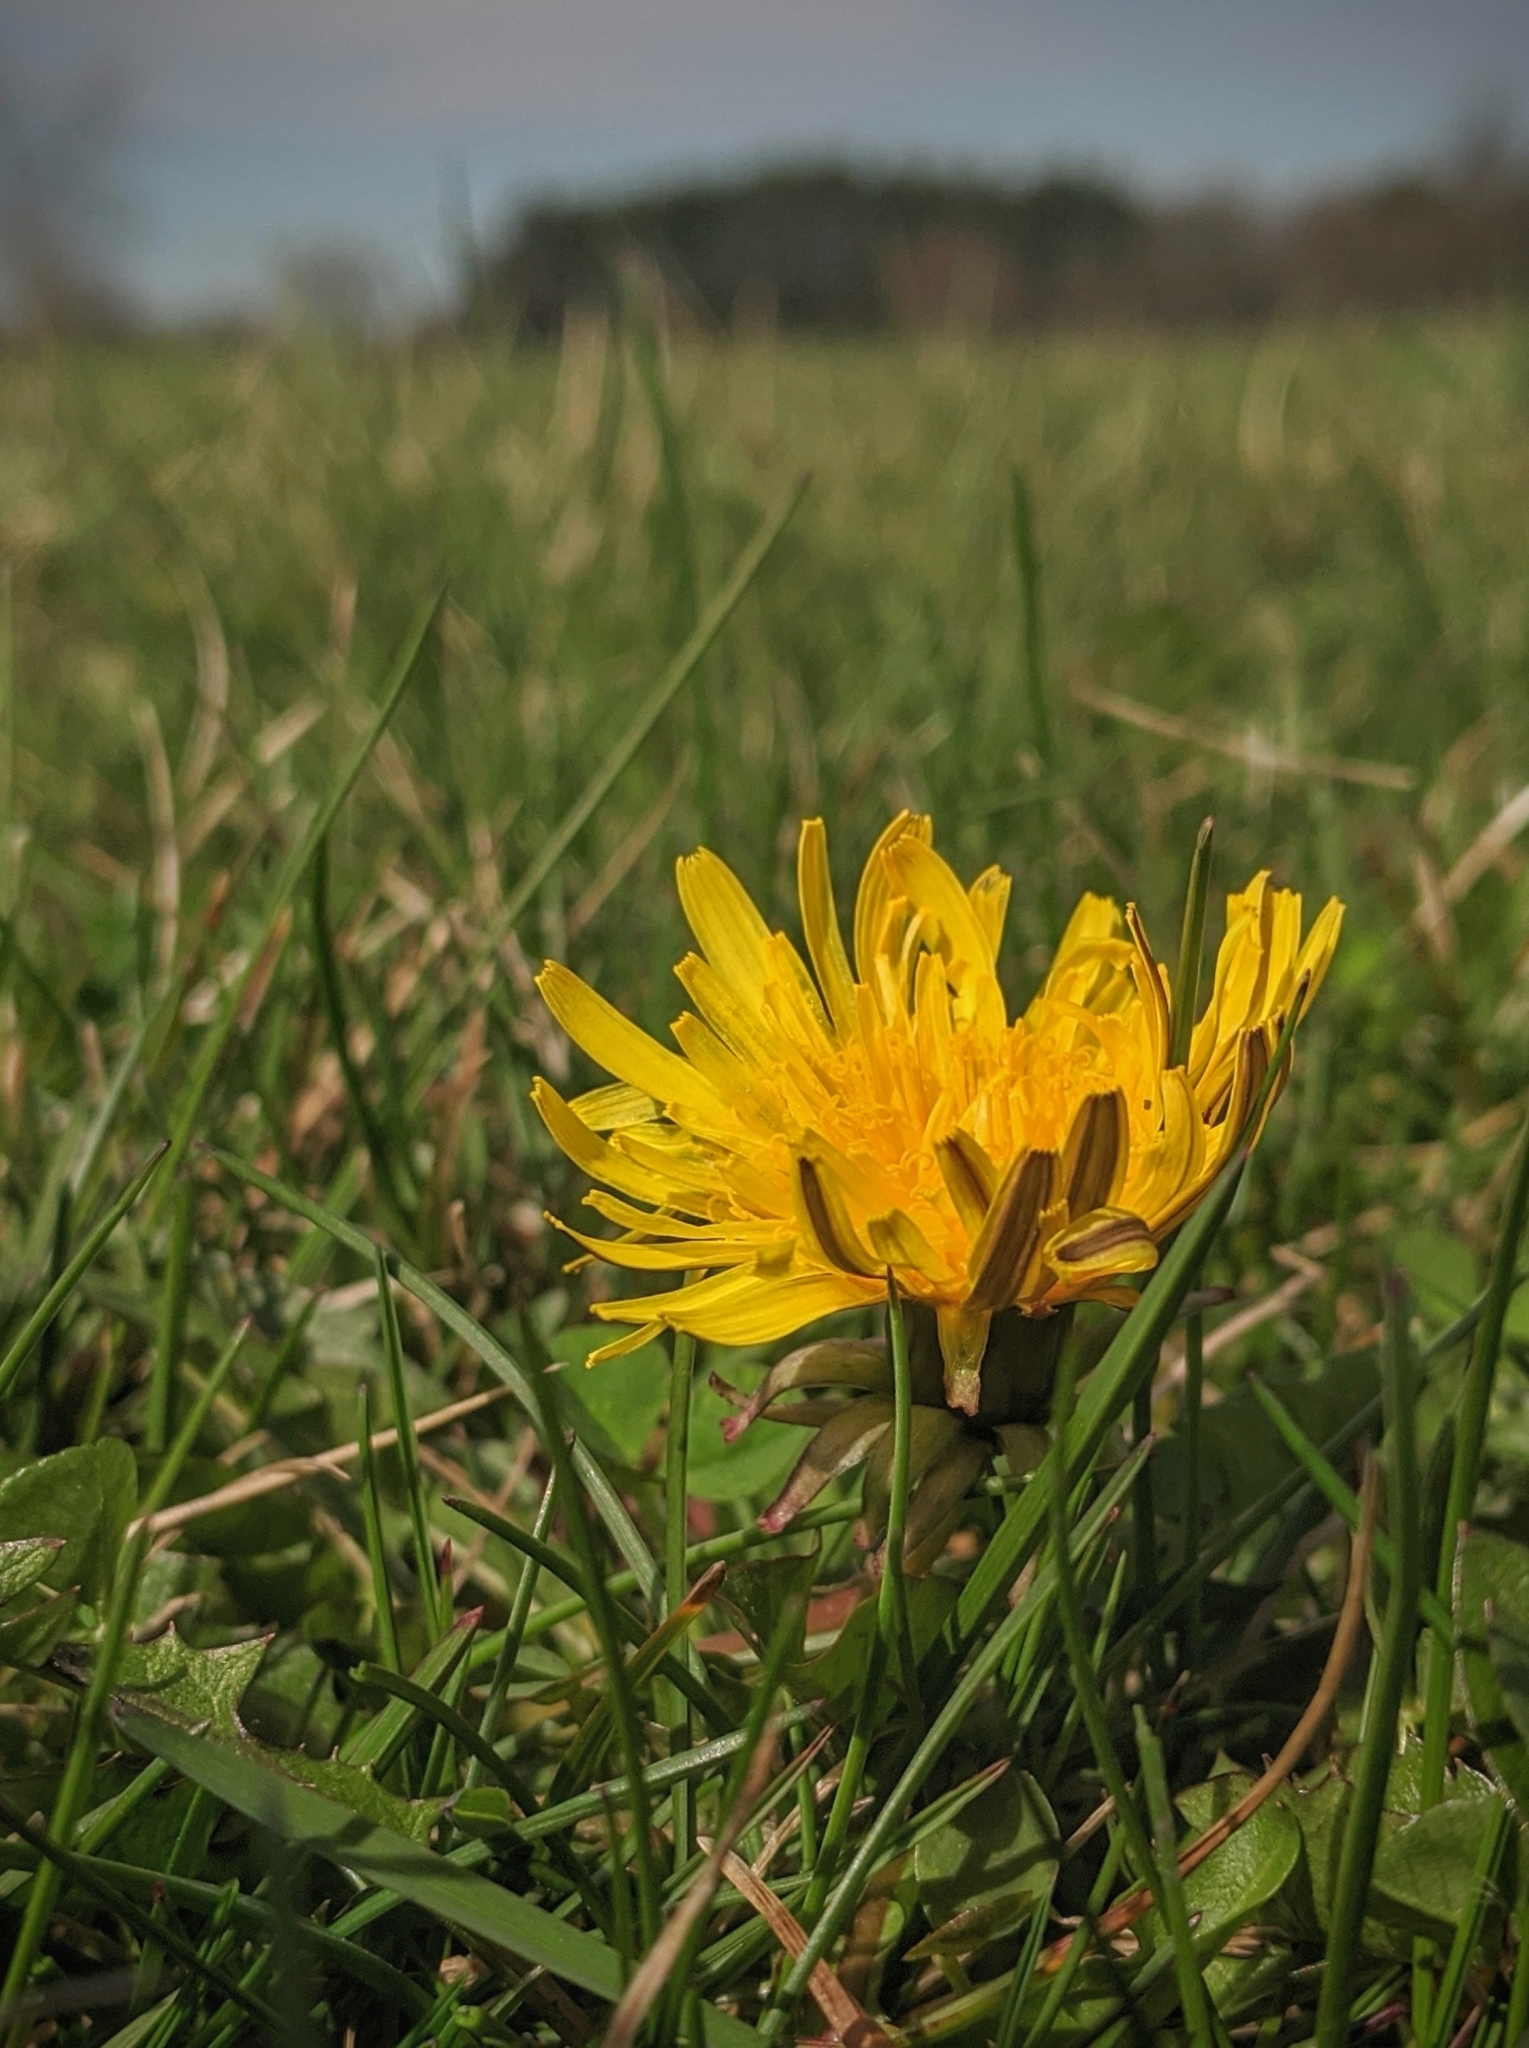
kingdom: Plantae
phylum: Tracheophyta
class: Magnoliopsida
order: Asterales
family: Asteraceae
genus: Taraxacum
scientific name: Taraxacum officinale
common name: Common dandelion
